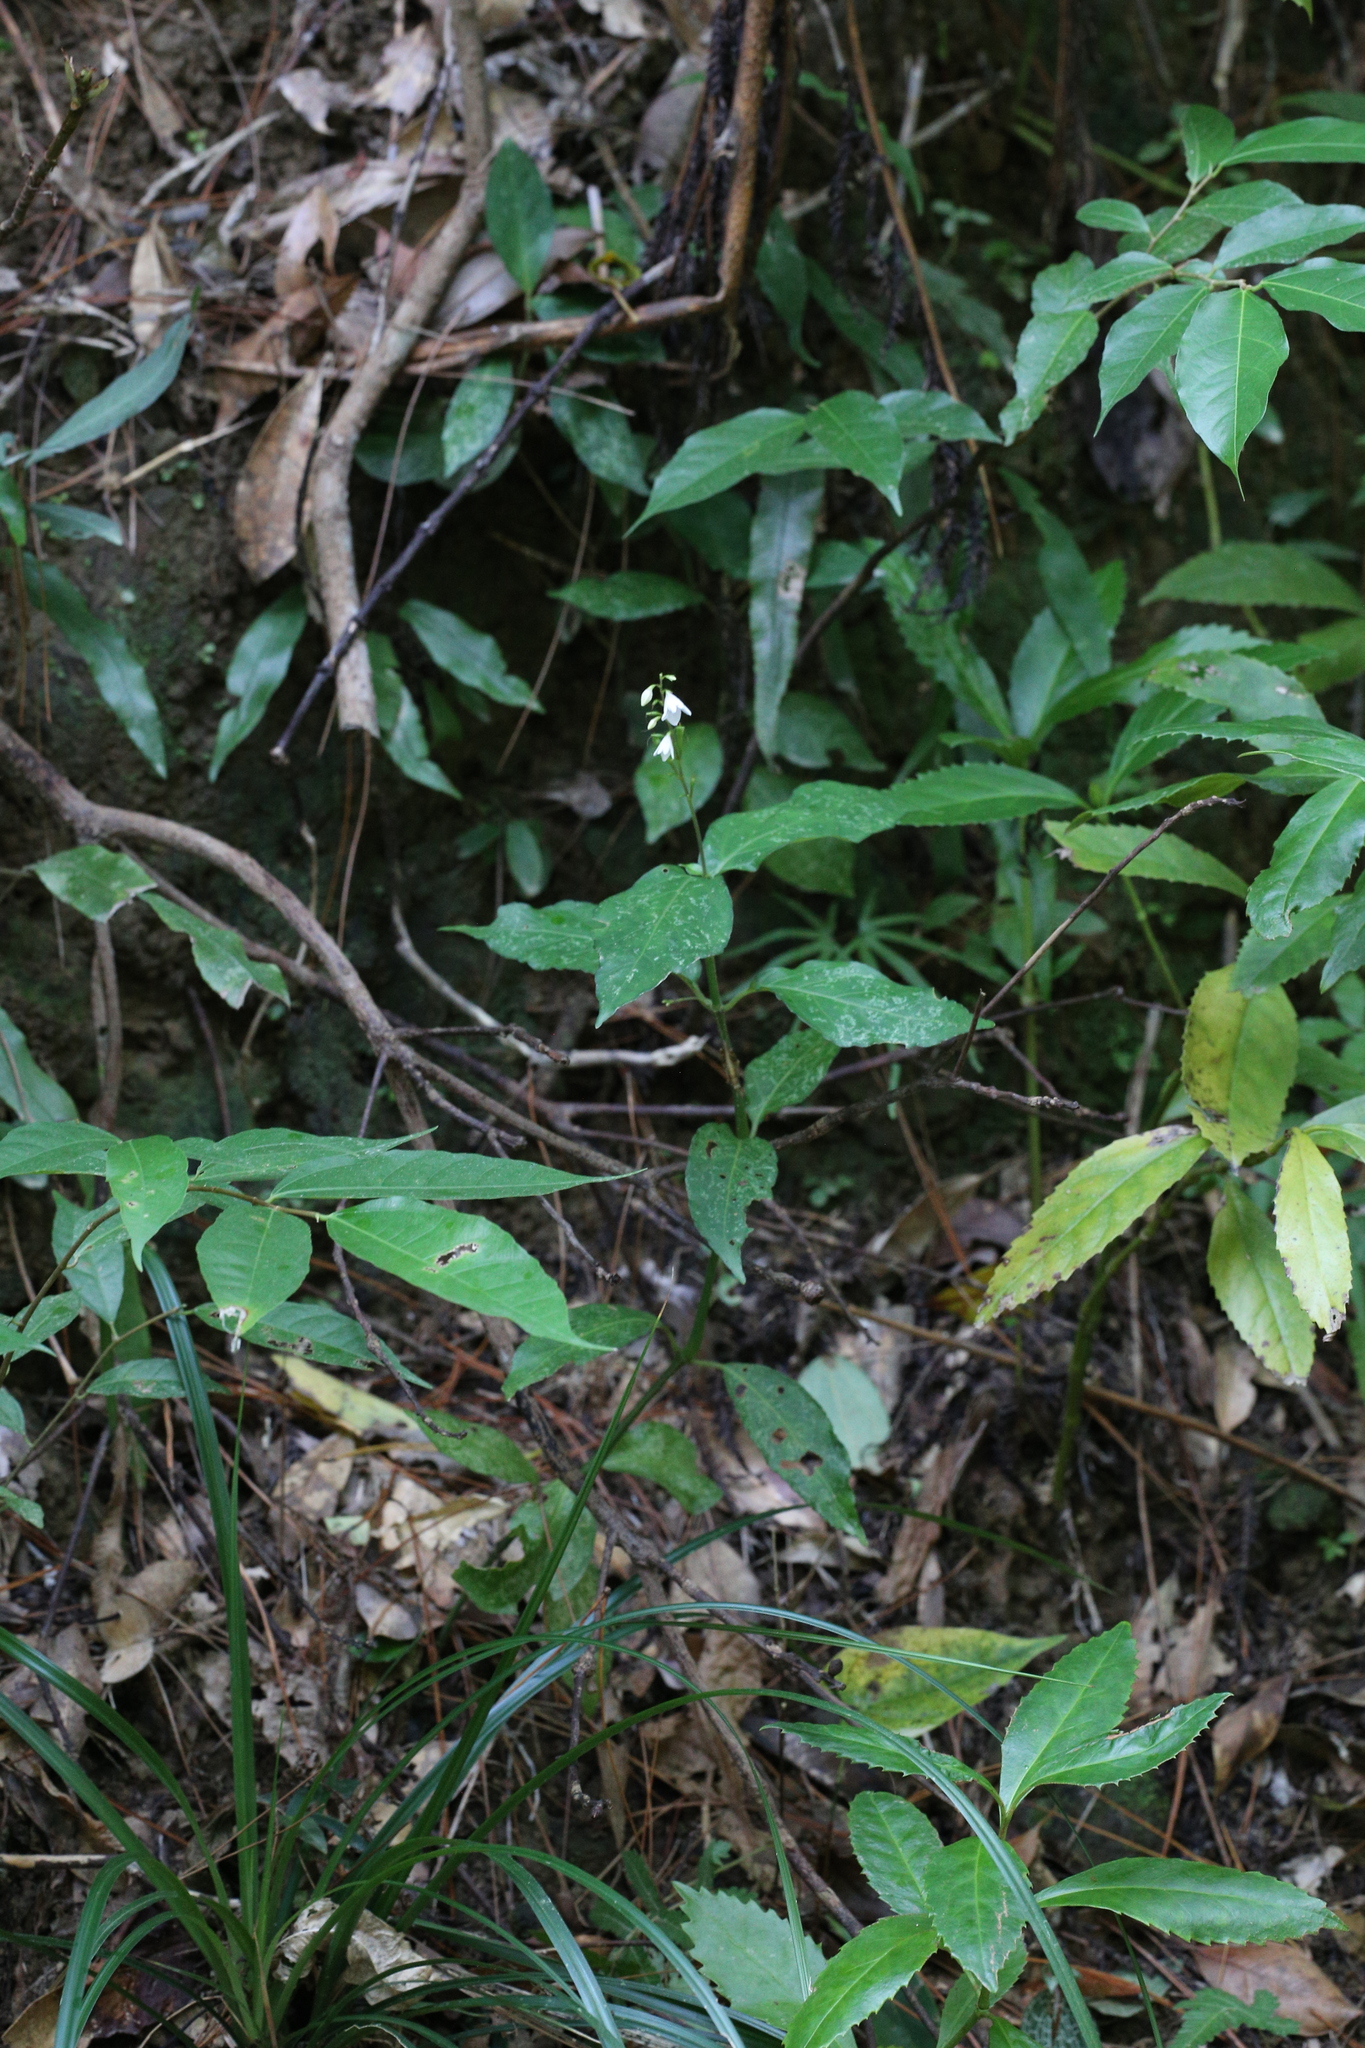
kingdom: Plantae
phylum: Tracheophyta
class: Magnoliopsida
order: Lamiales
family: Acanthaceae
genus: Codonacanthus
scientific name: Codonacanthus pauciflorus
